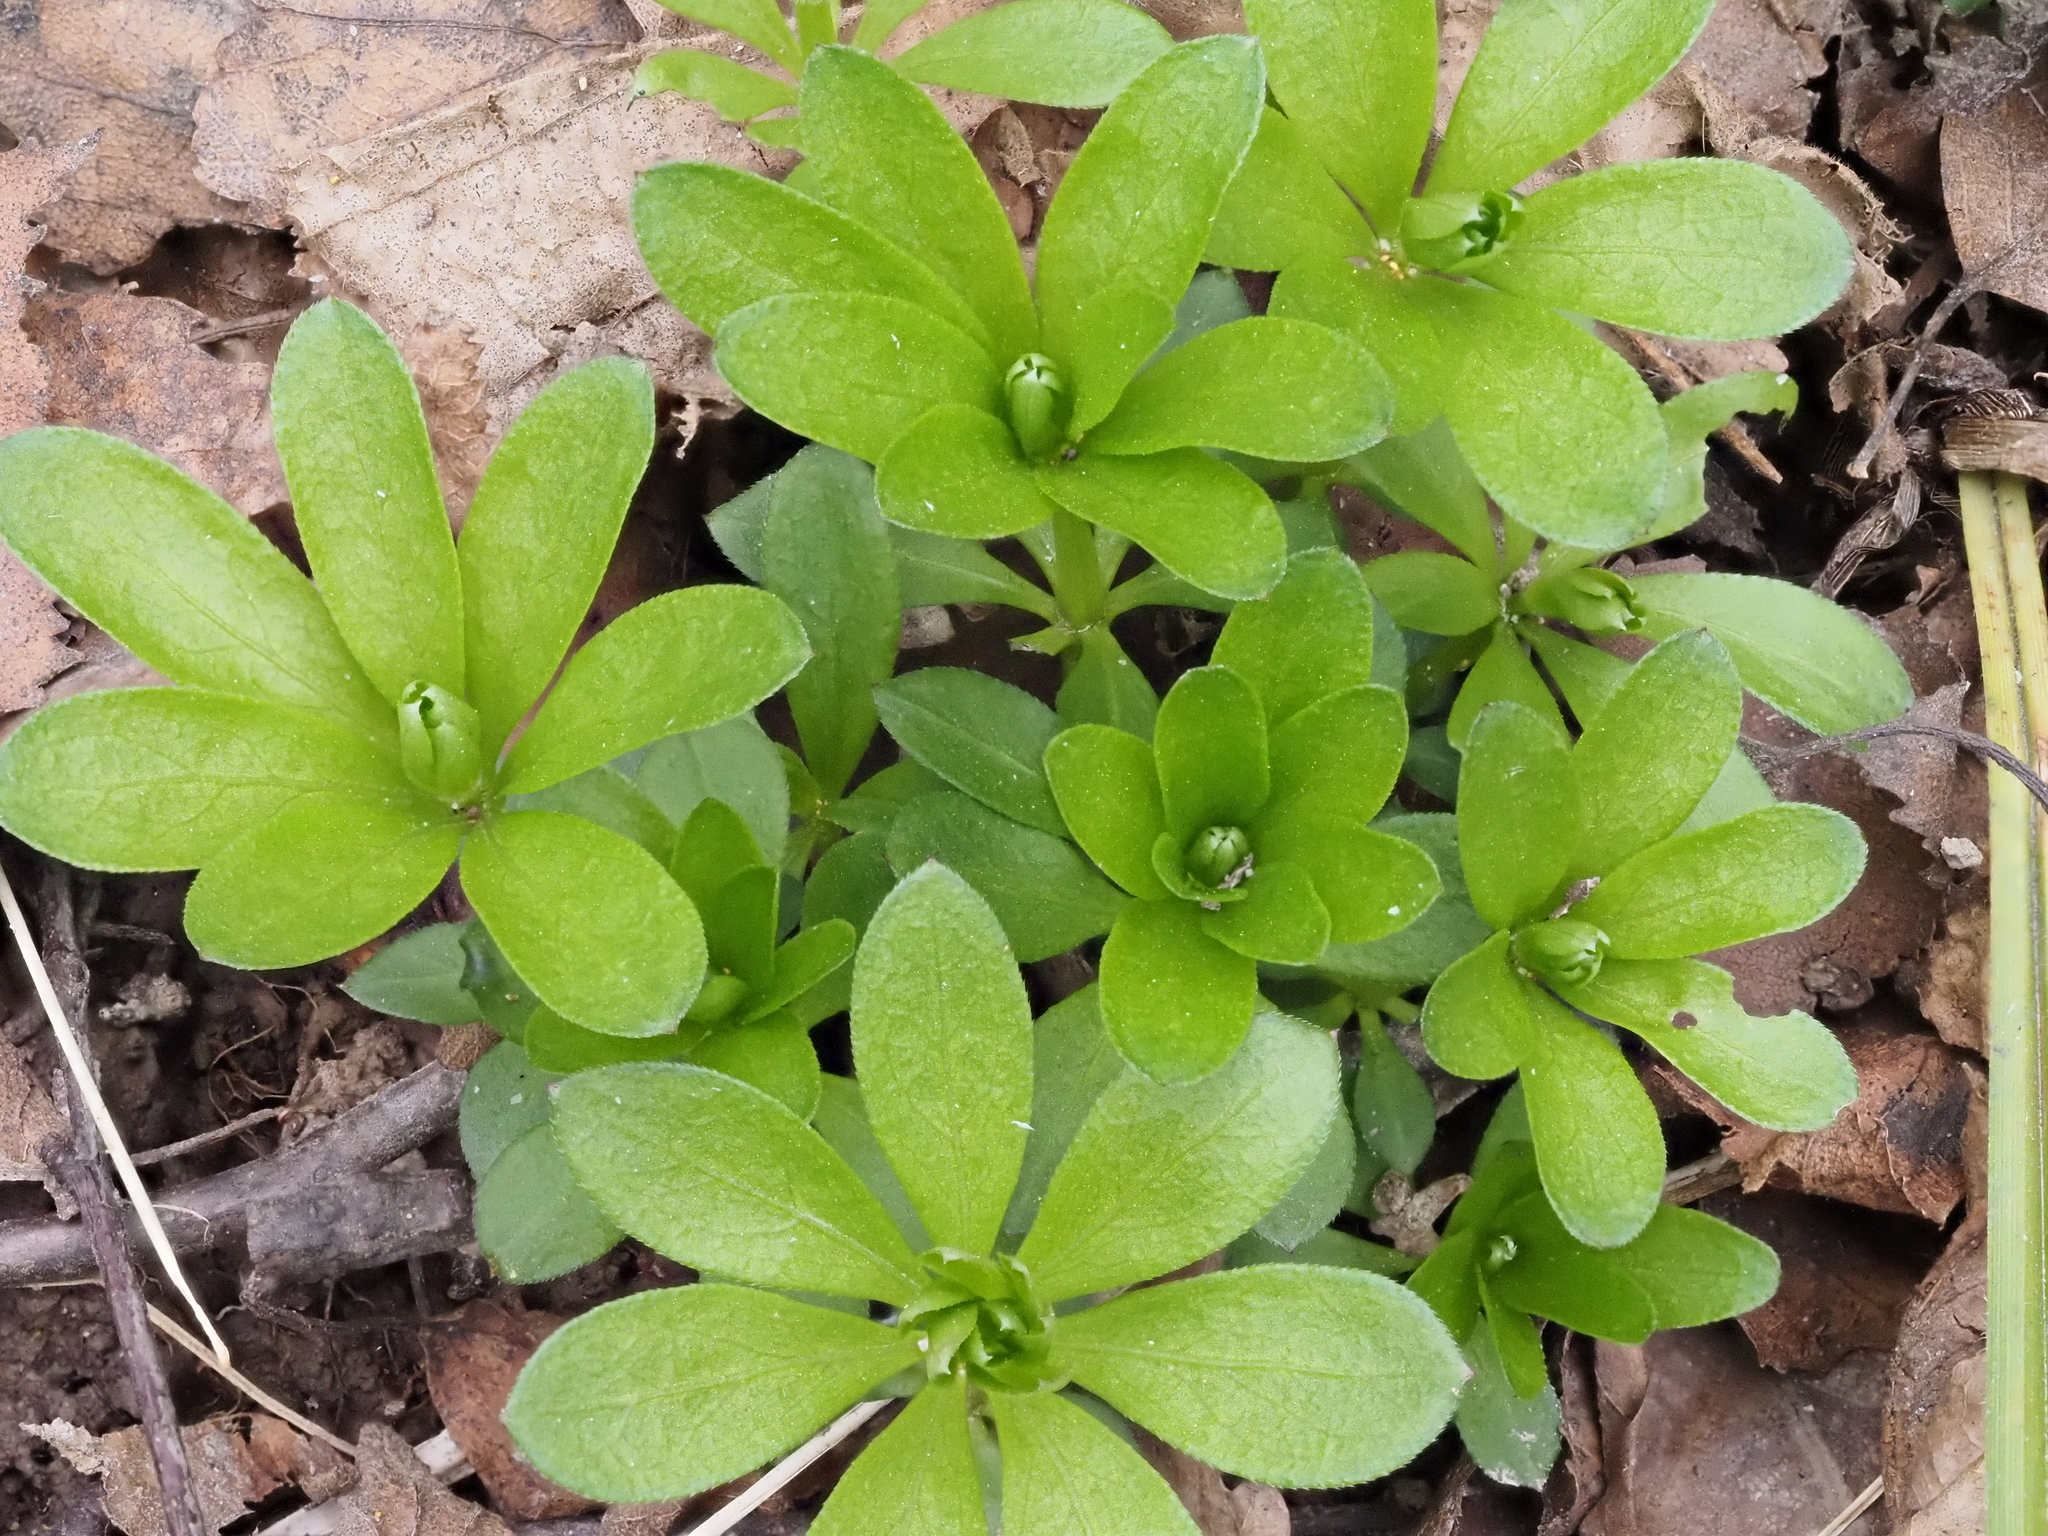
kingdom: Plantae
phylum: Tracheophyta
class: Magnoliopsida
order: Gentianales
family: Rubiaceae
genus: Galium
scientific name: Galium odoratum
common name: Sweet woodruff
